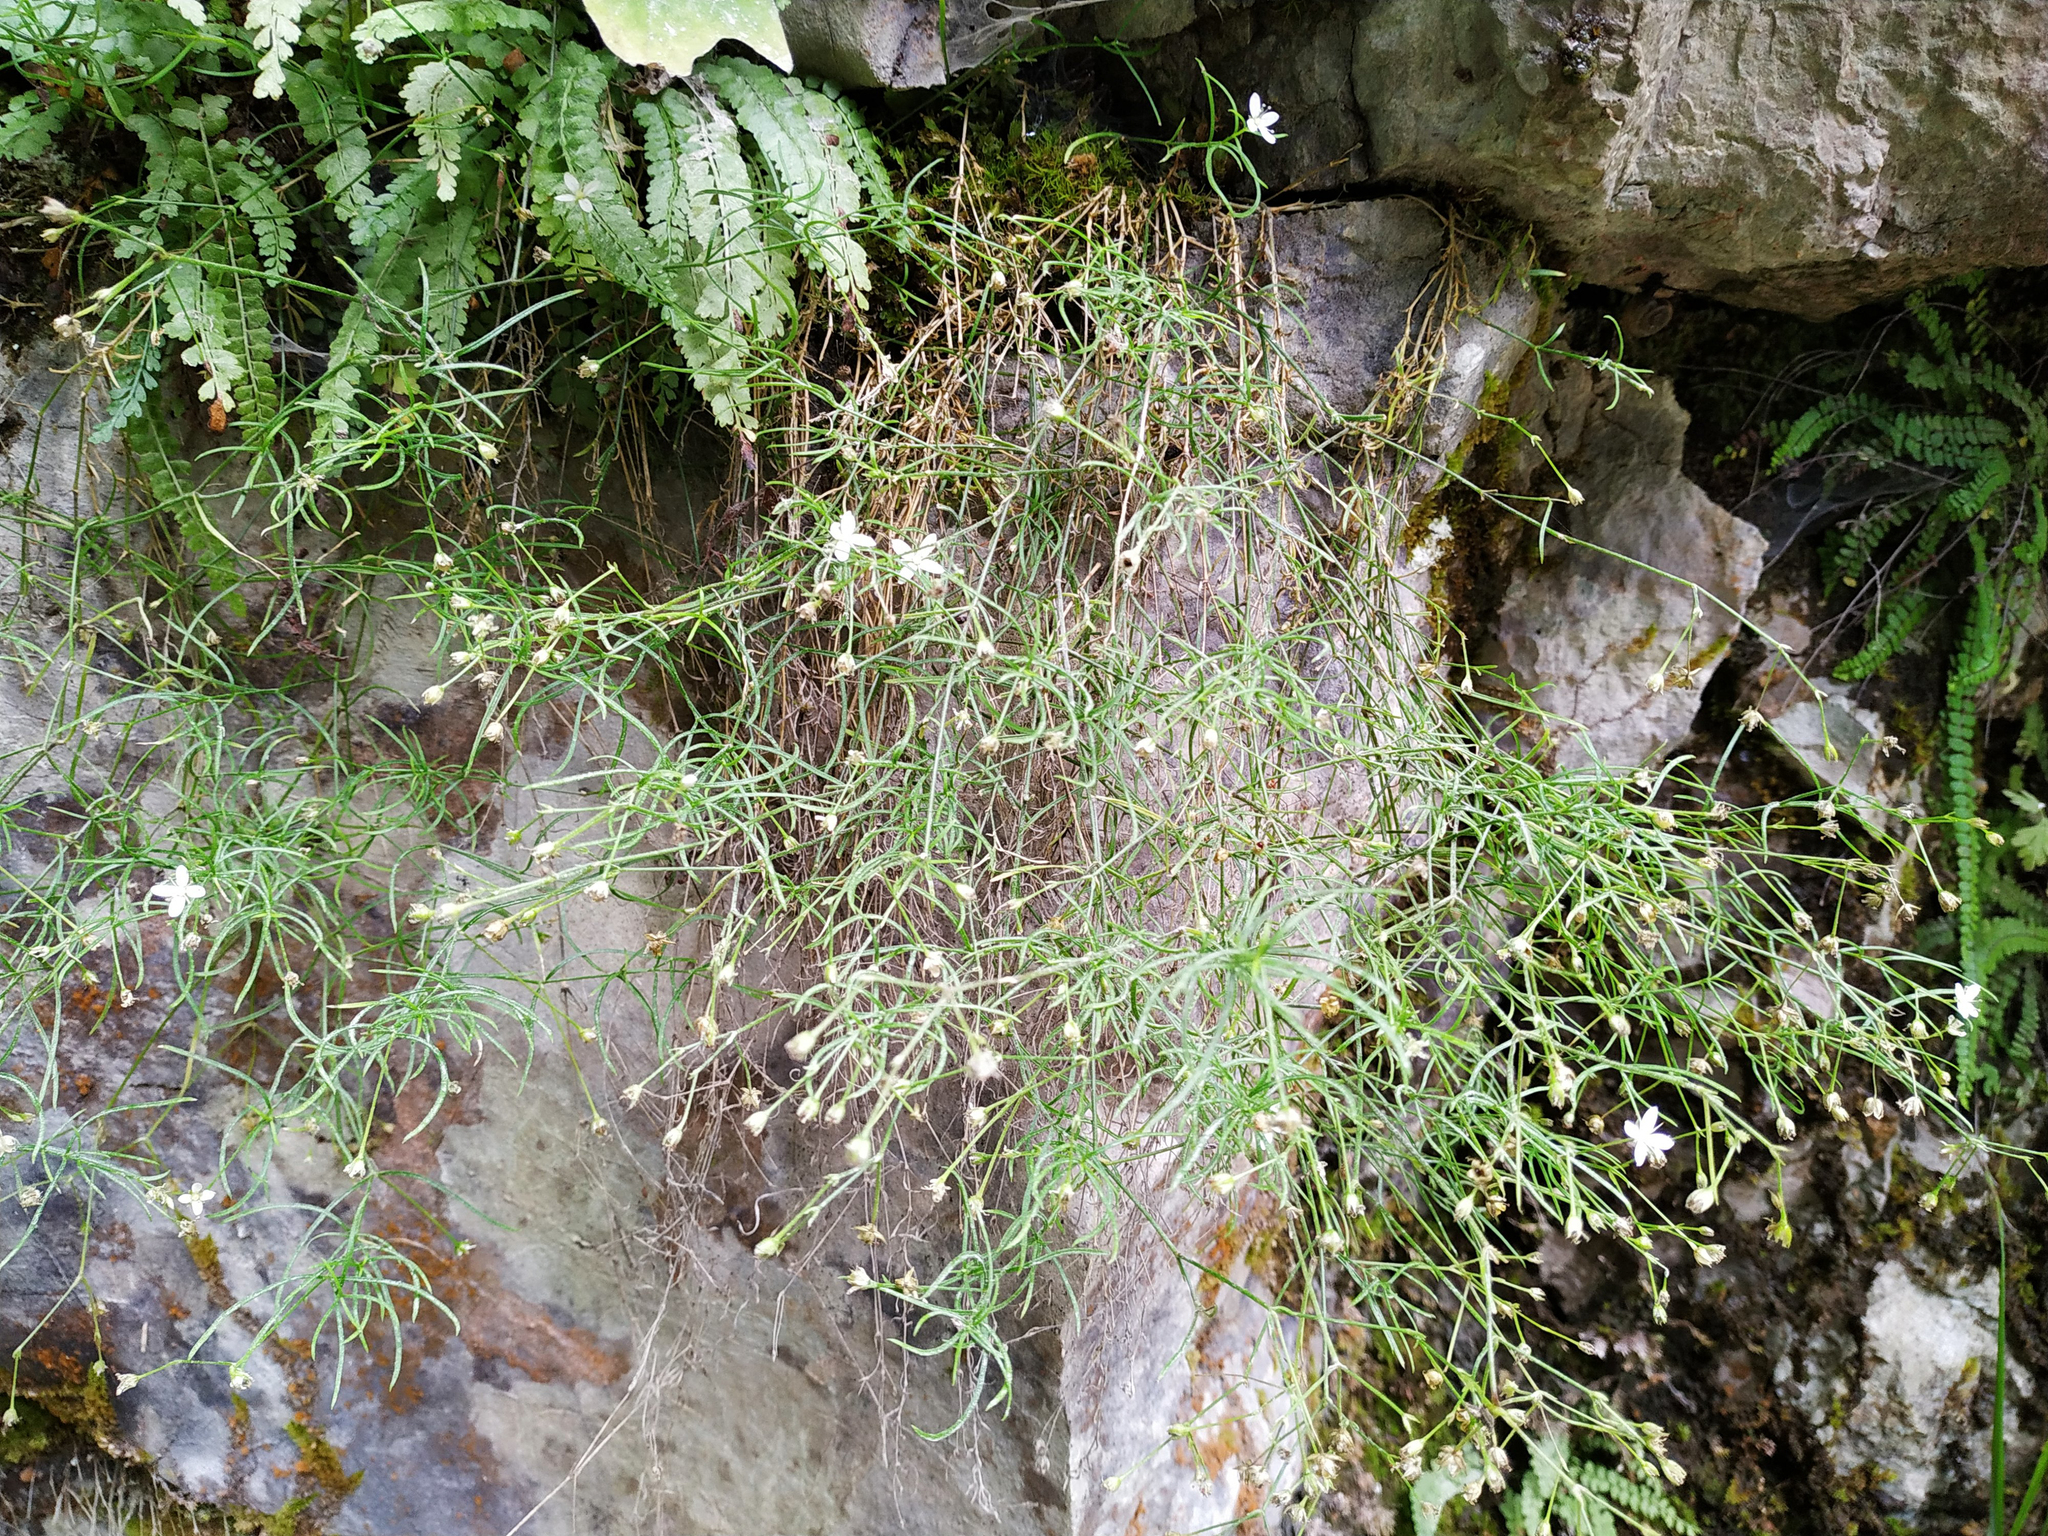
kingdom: Plantae
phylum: Tracheophyta
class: Magnoliopsida
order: Caryophyllales
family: Caryophyllaceae
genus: Moehringia
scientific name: Moehringia muscosa
